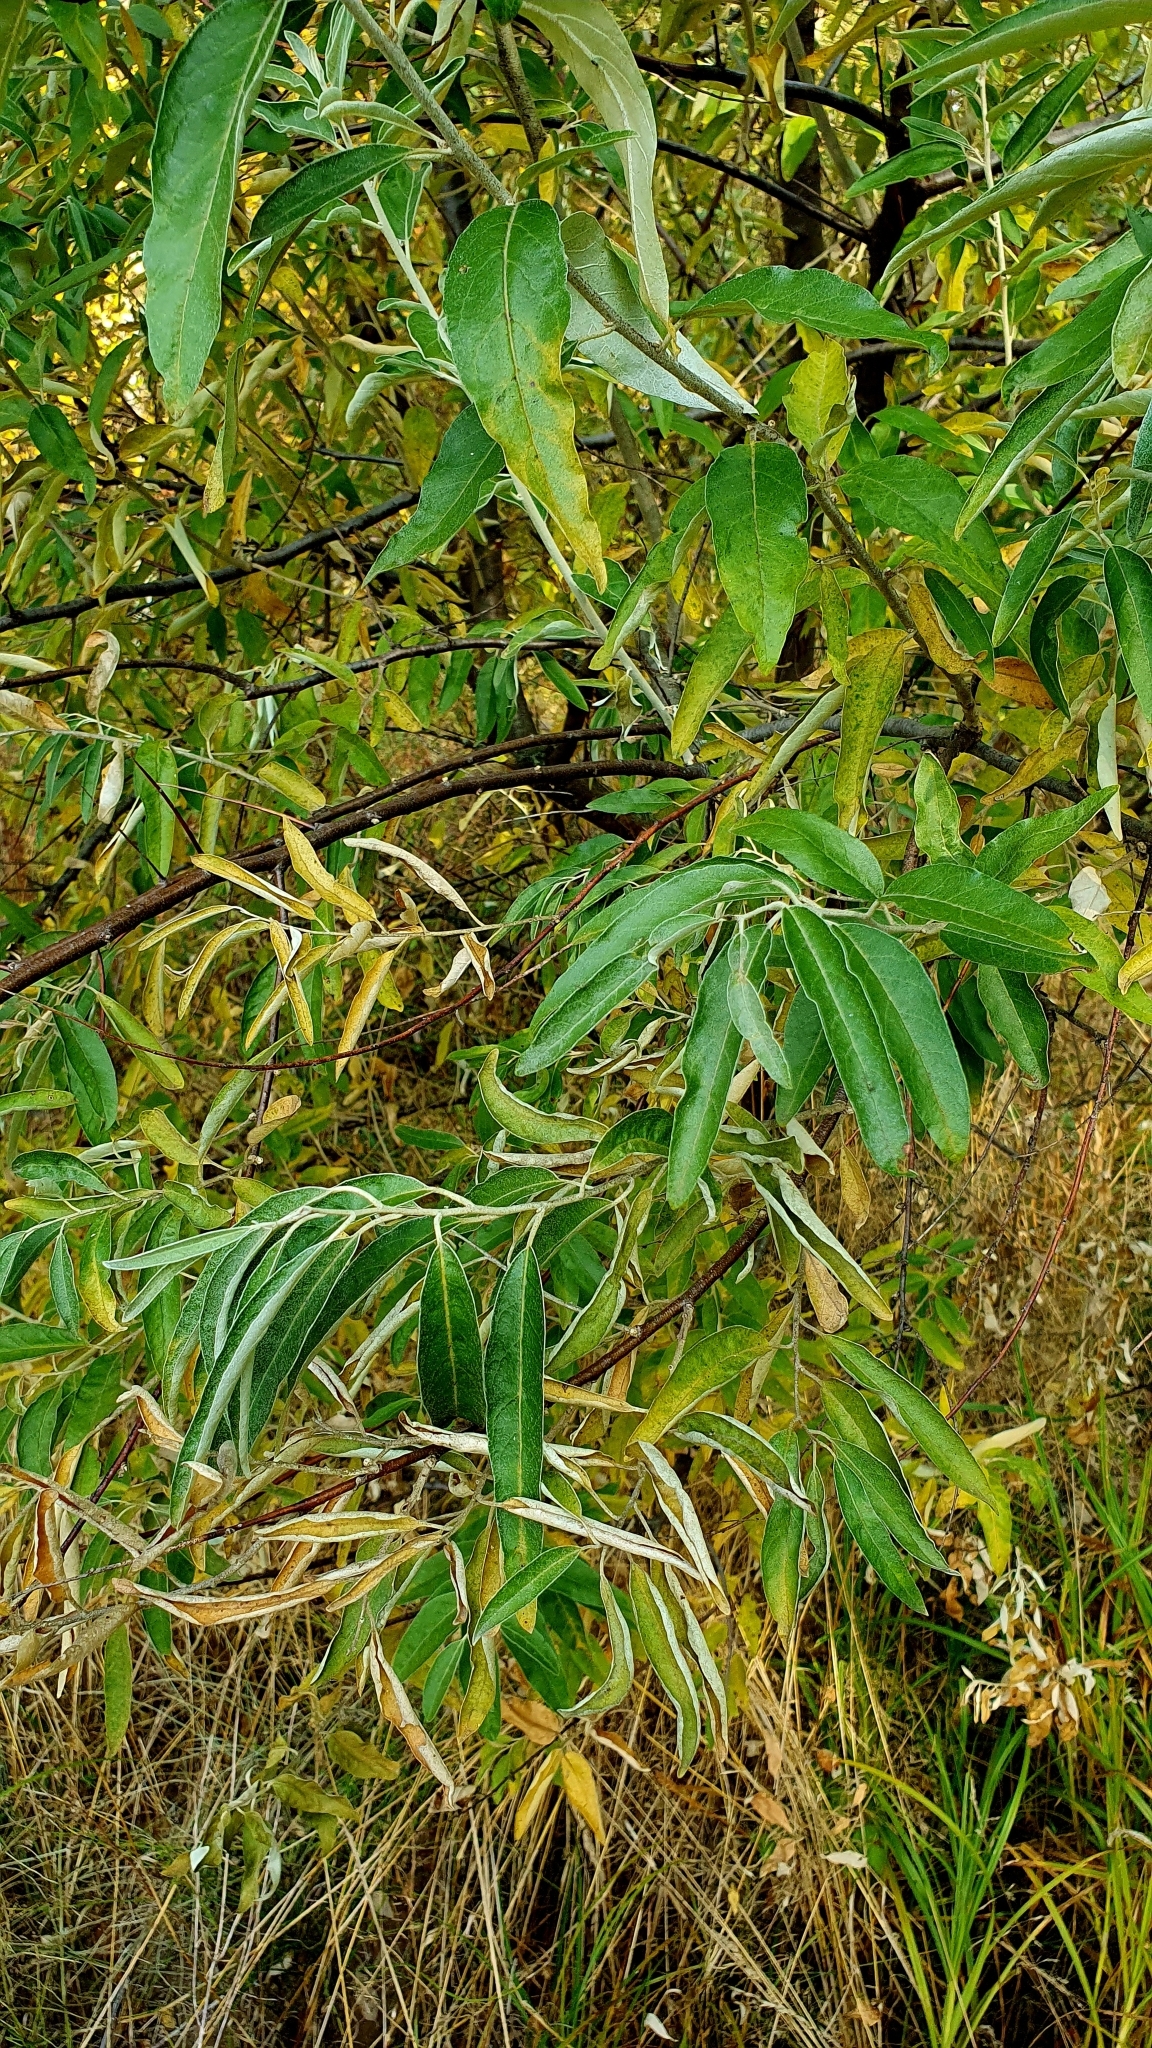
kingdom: Plantae
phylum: Tracheophyta
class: Magnoliopsida
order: Rosales
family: Elaeagnaceae
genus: Elaeagnus
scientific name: Elaeagnus angustifolia
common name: Russian olive
